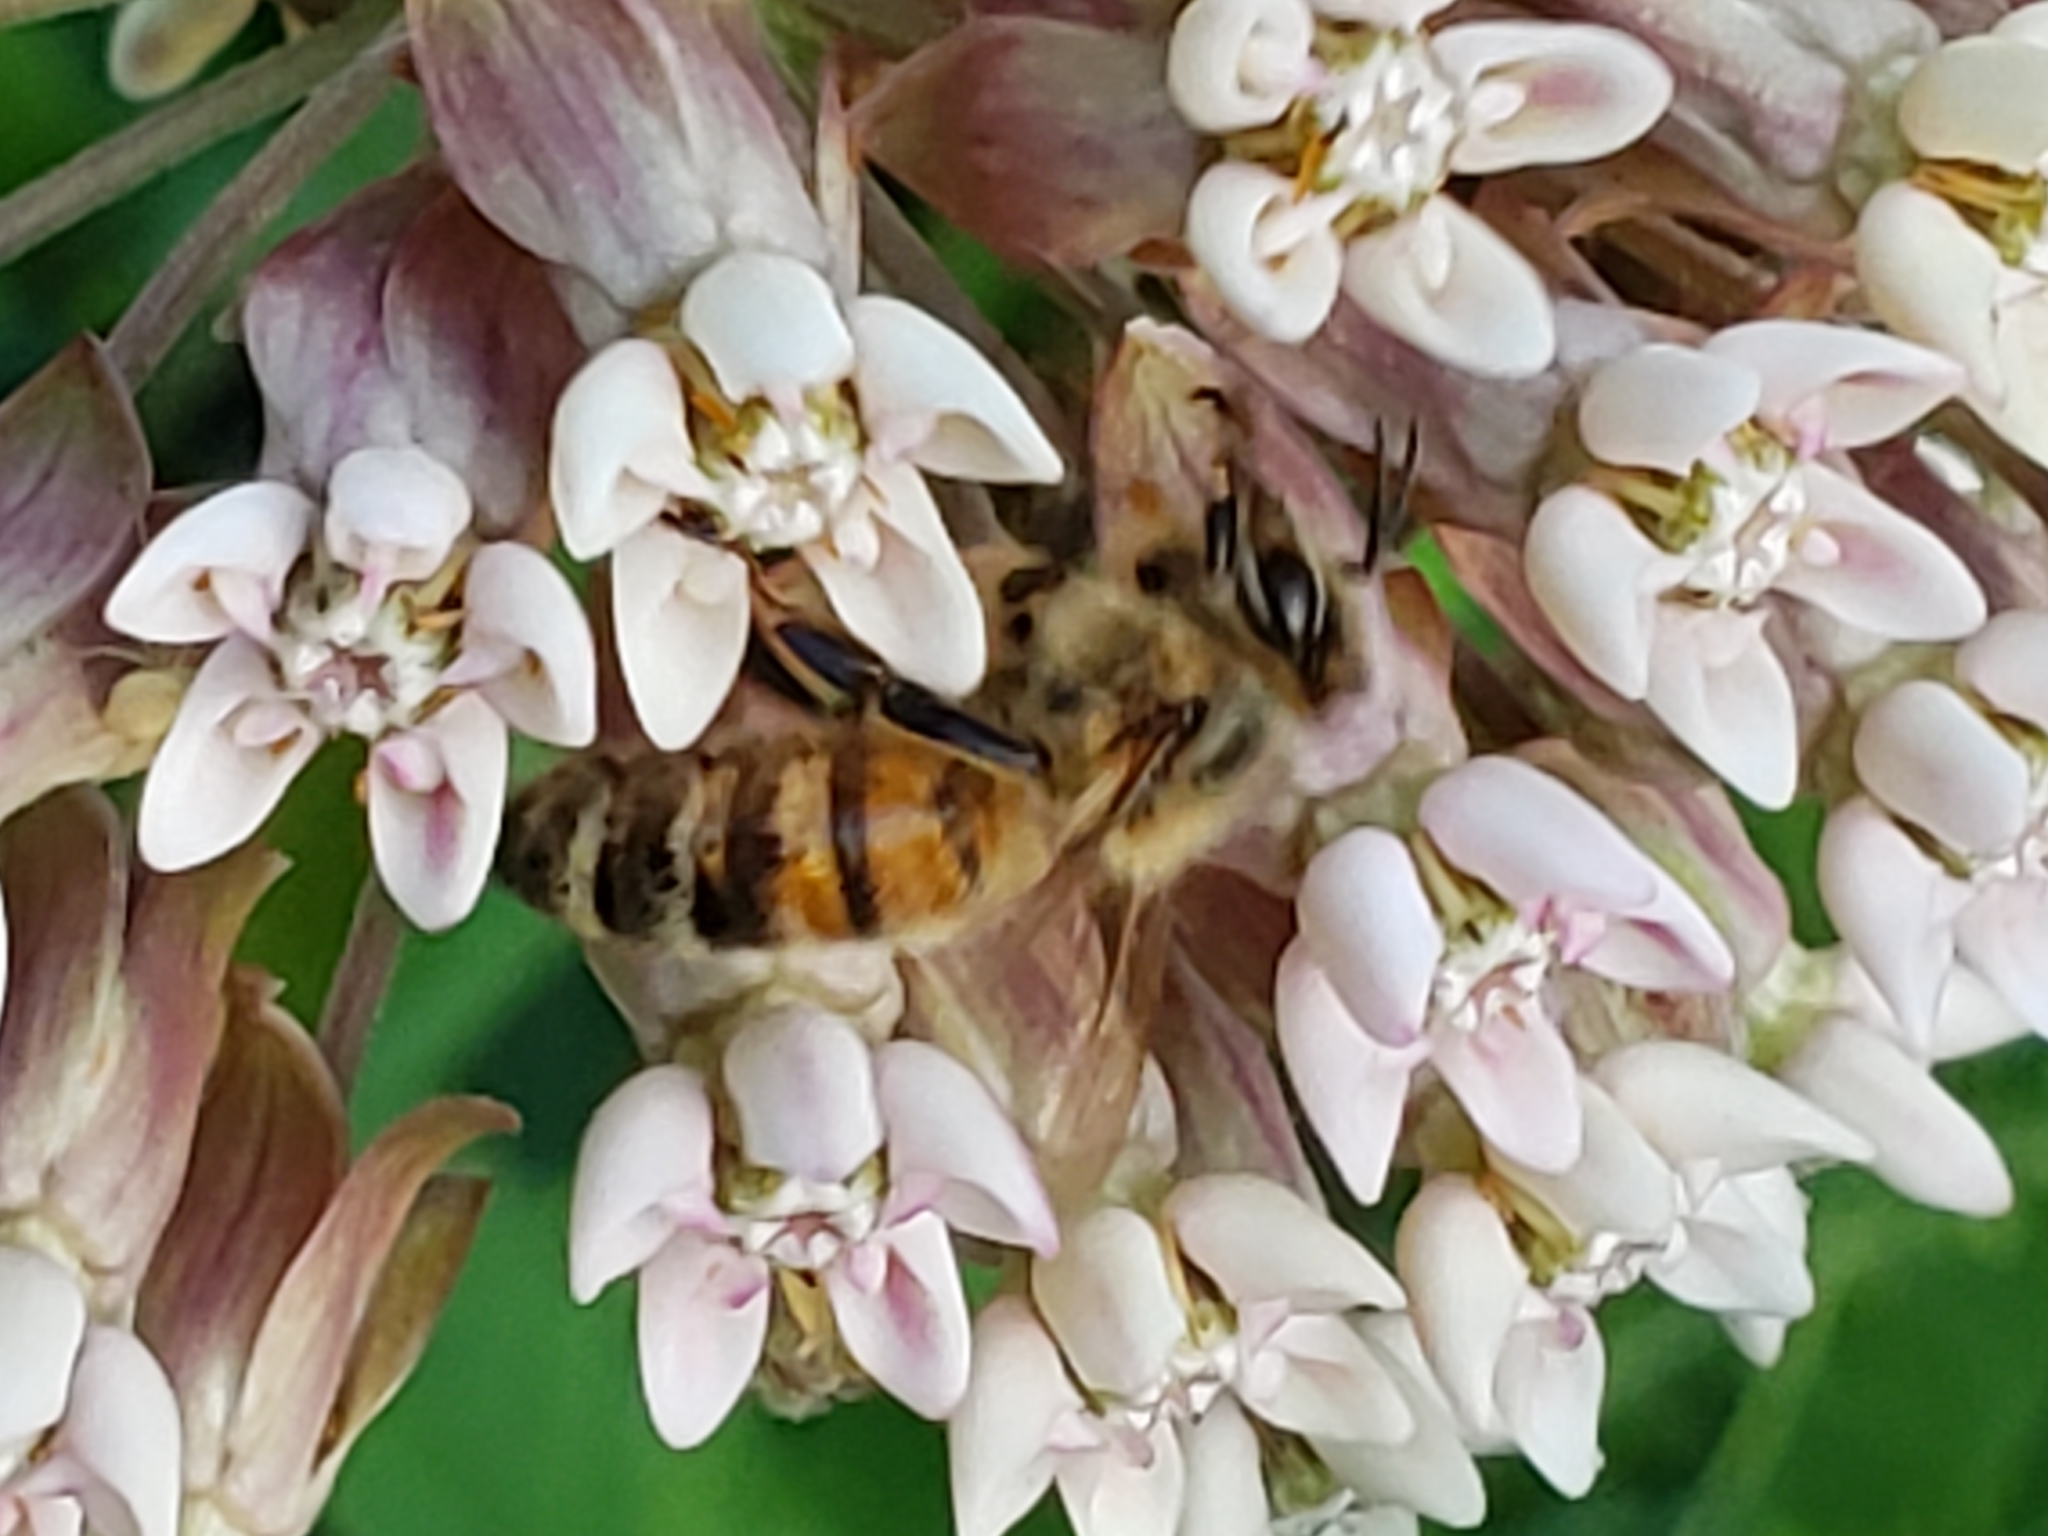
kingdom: Animalia
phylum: Arthropoda
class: Insecta
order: Hymenoptera
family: Apidae
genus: Apis
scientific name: Apis mellifera
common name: Honey bee
